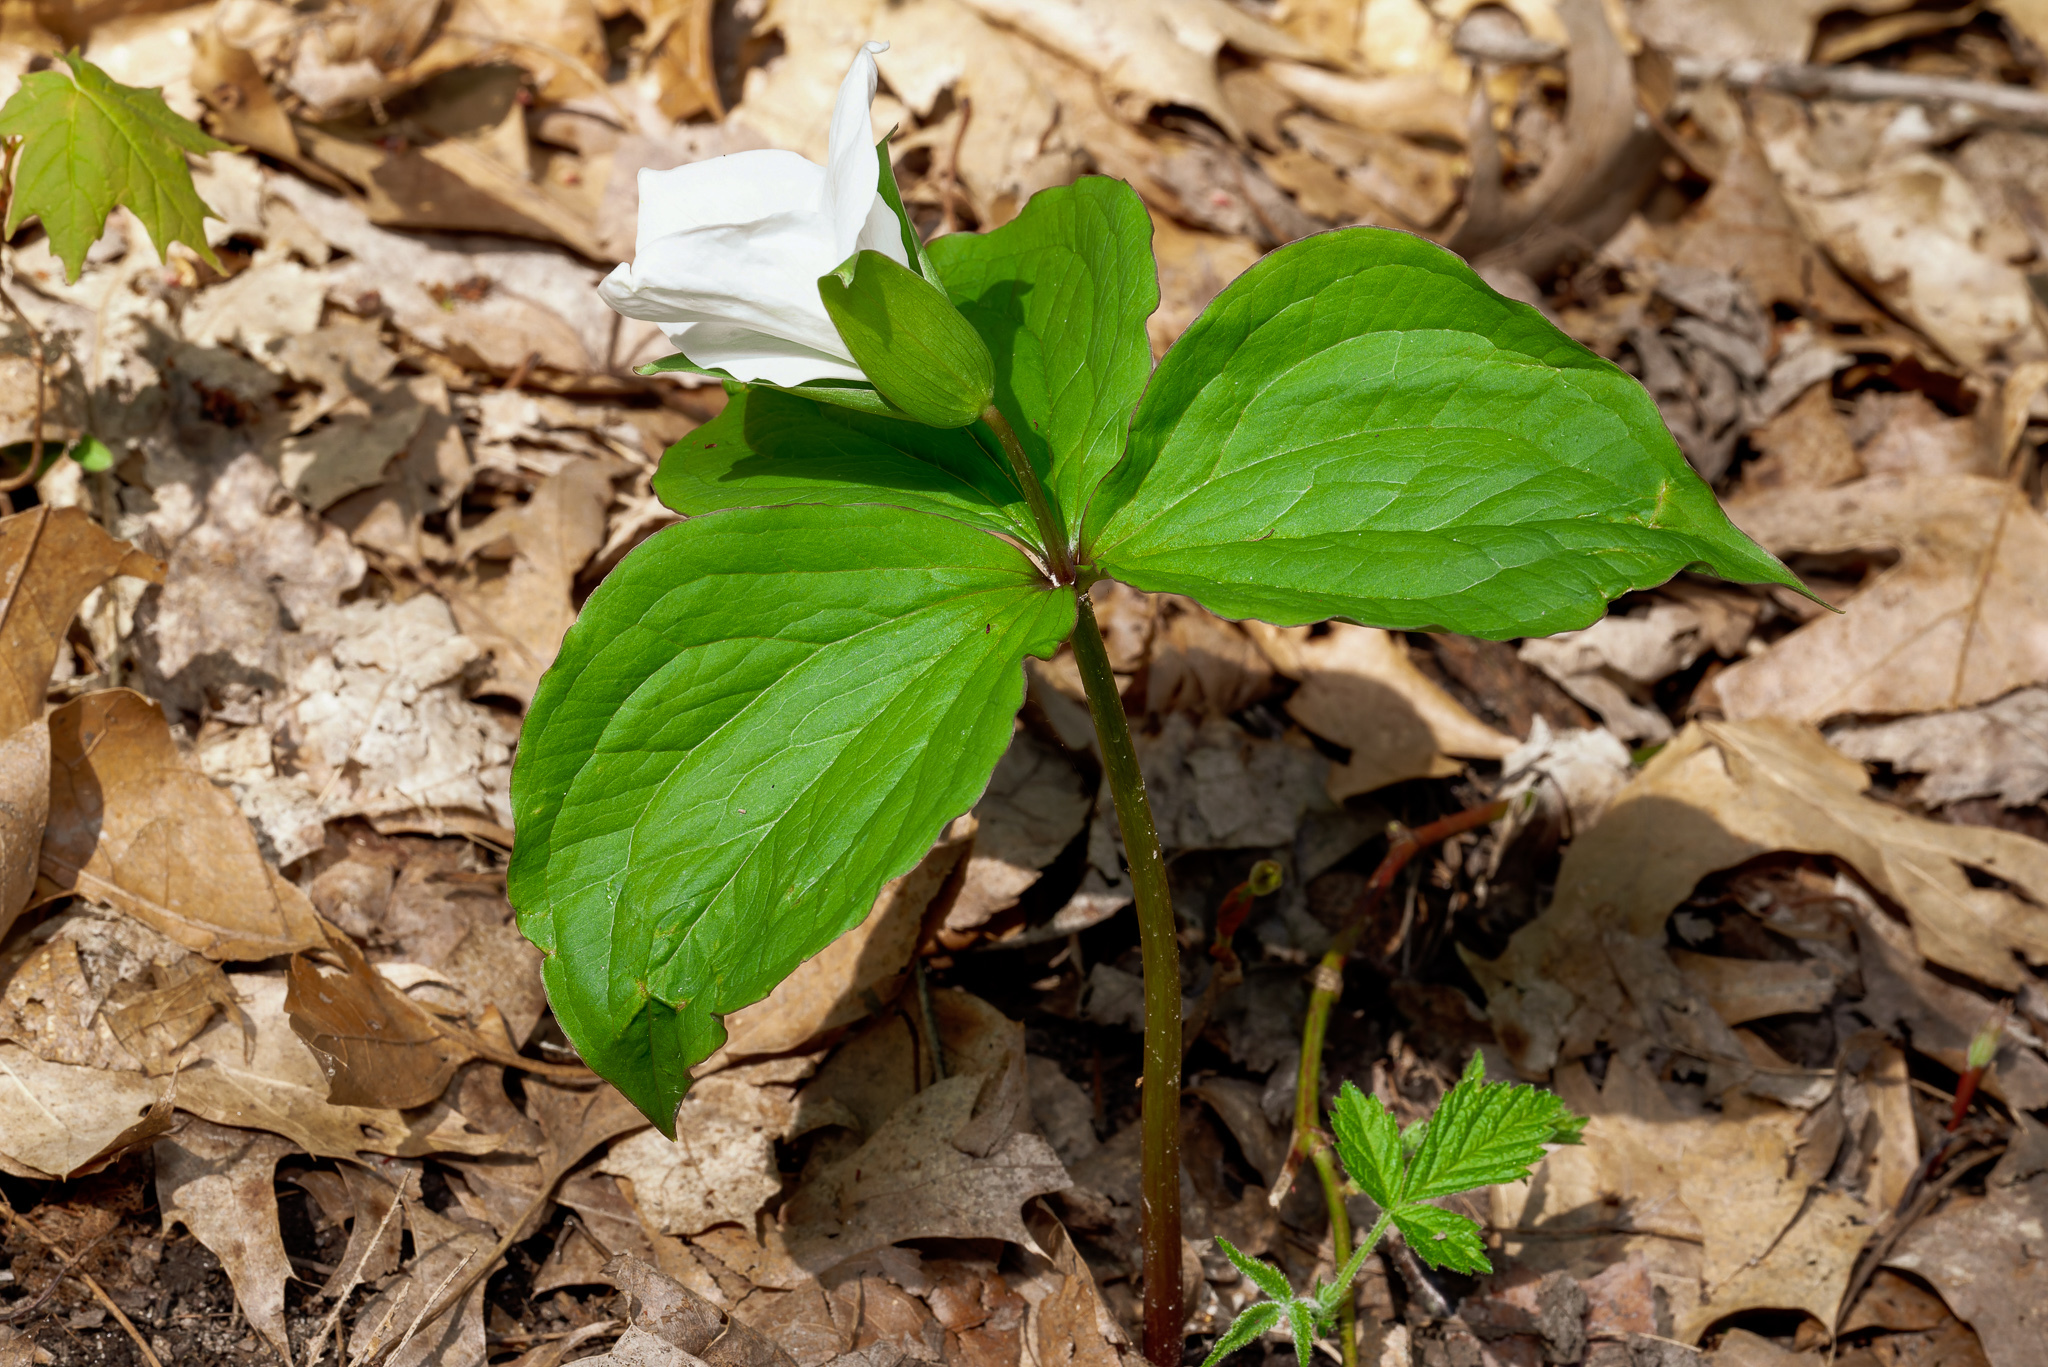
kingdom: Plantae
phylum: Tracheophyta
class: Liliopsida
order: Liliales
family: Melanthiaceae
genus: Trillium
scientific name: Trillium grandiflorum
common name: Great white trillium
